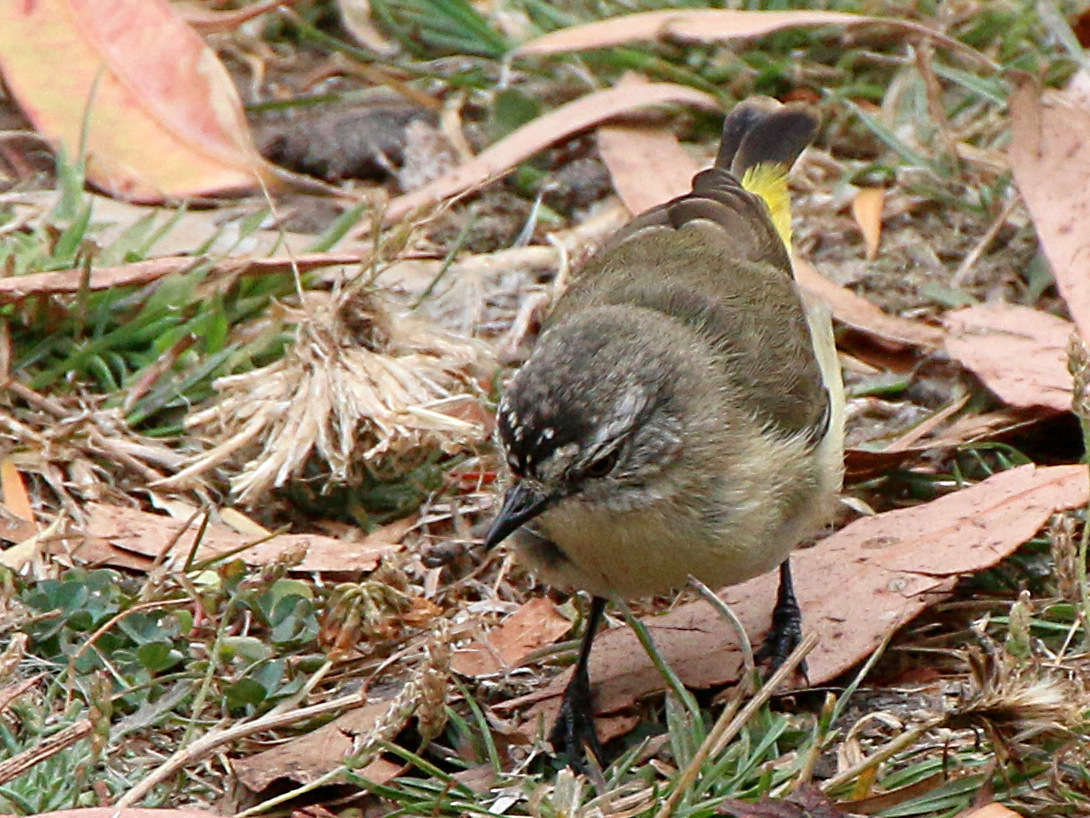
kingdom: Animalia
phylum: Chordata
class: Aves
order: Passeriformes
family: Acanthizidae
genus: Acanthiza
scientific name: Acanthiza chrysorrhoa
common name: Yellow-rumped thornbill
